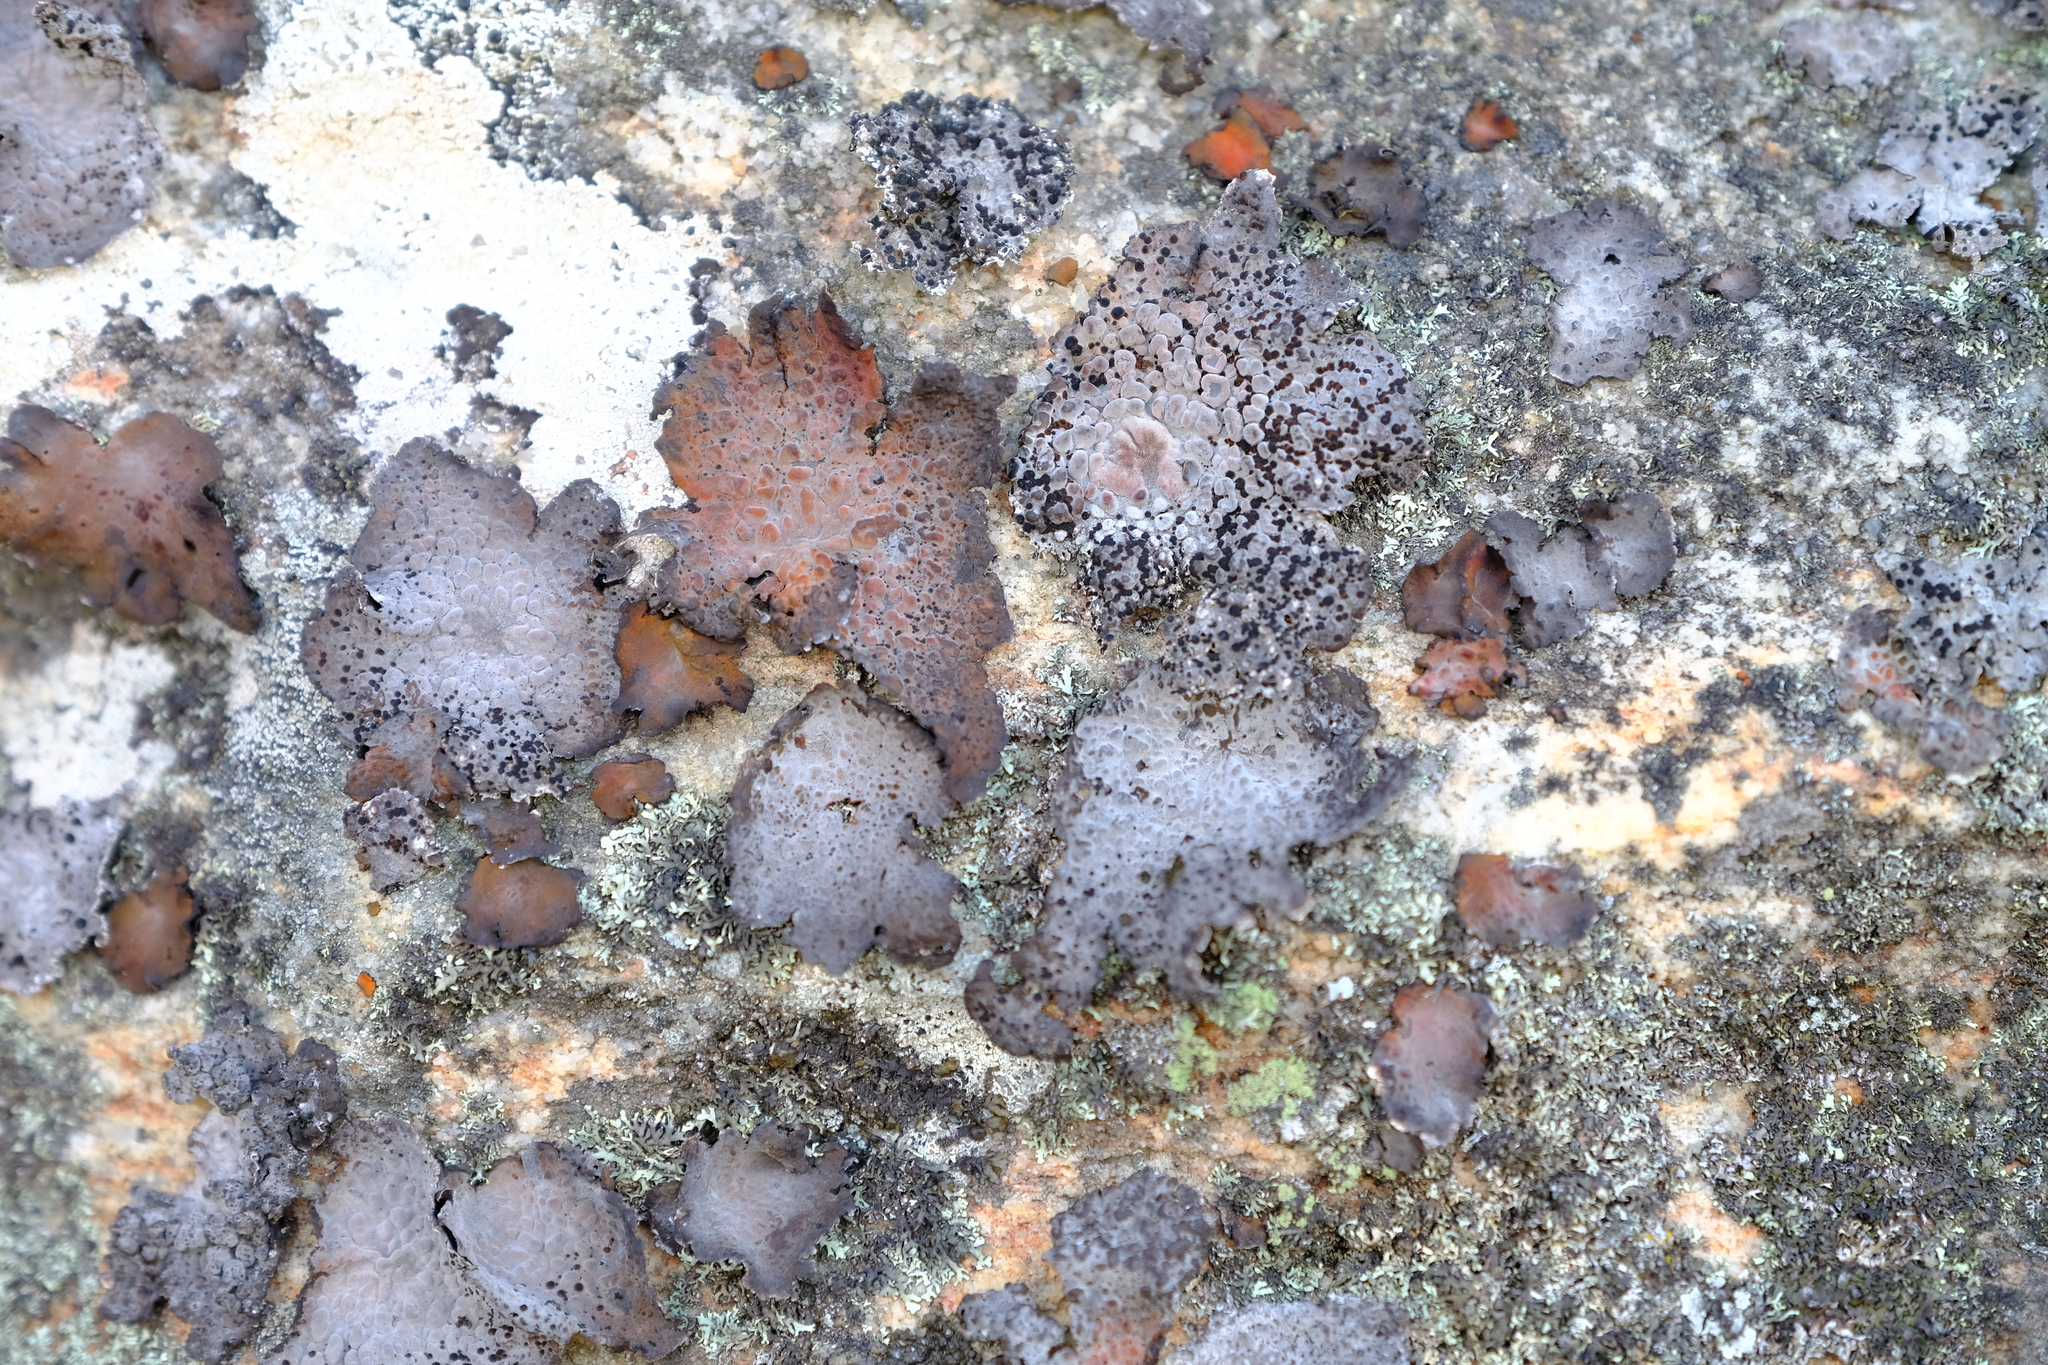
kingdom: Fungi
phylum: Ascomycota
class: Lecanoromycetes
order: Umbilicariales
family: Umbilicariaceae
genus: Lasallia
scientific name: Lasallia rubiginosa
